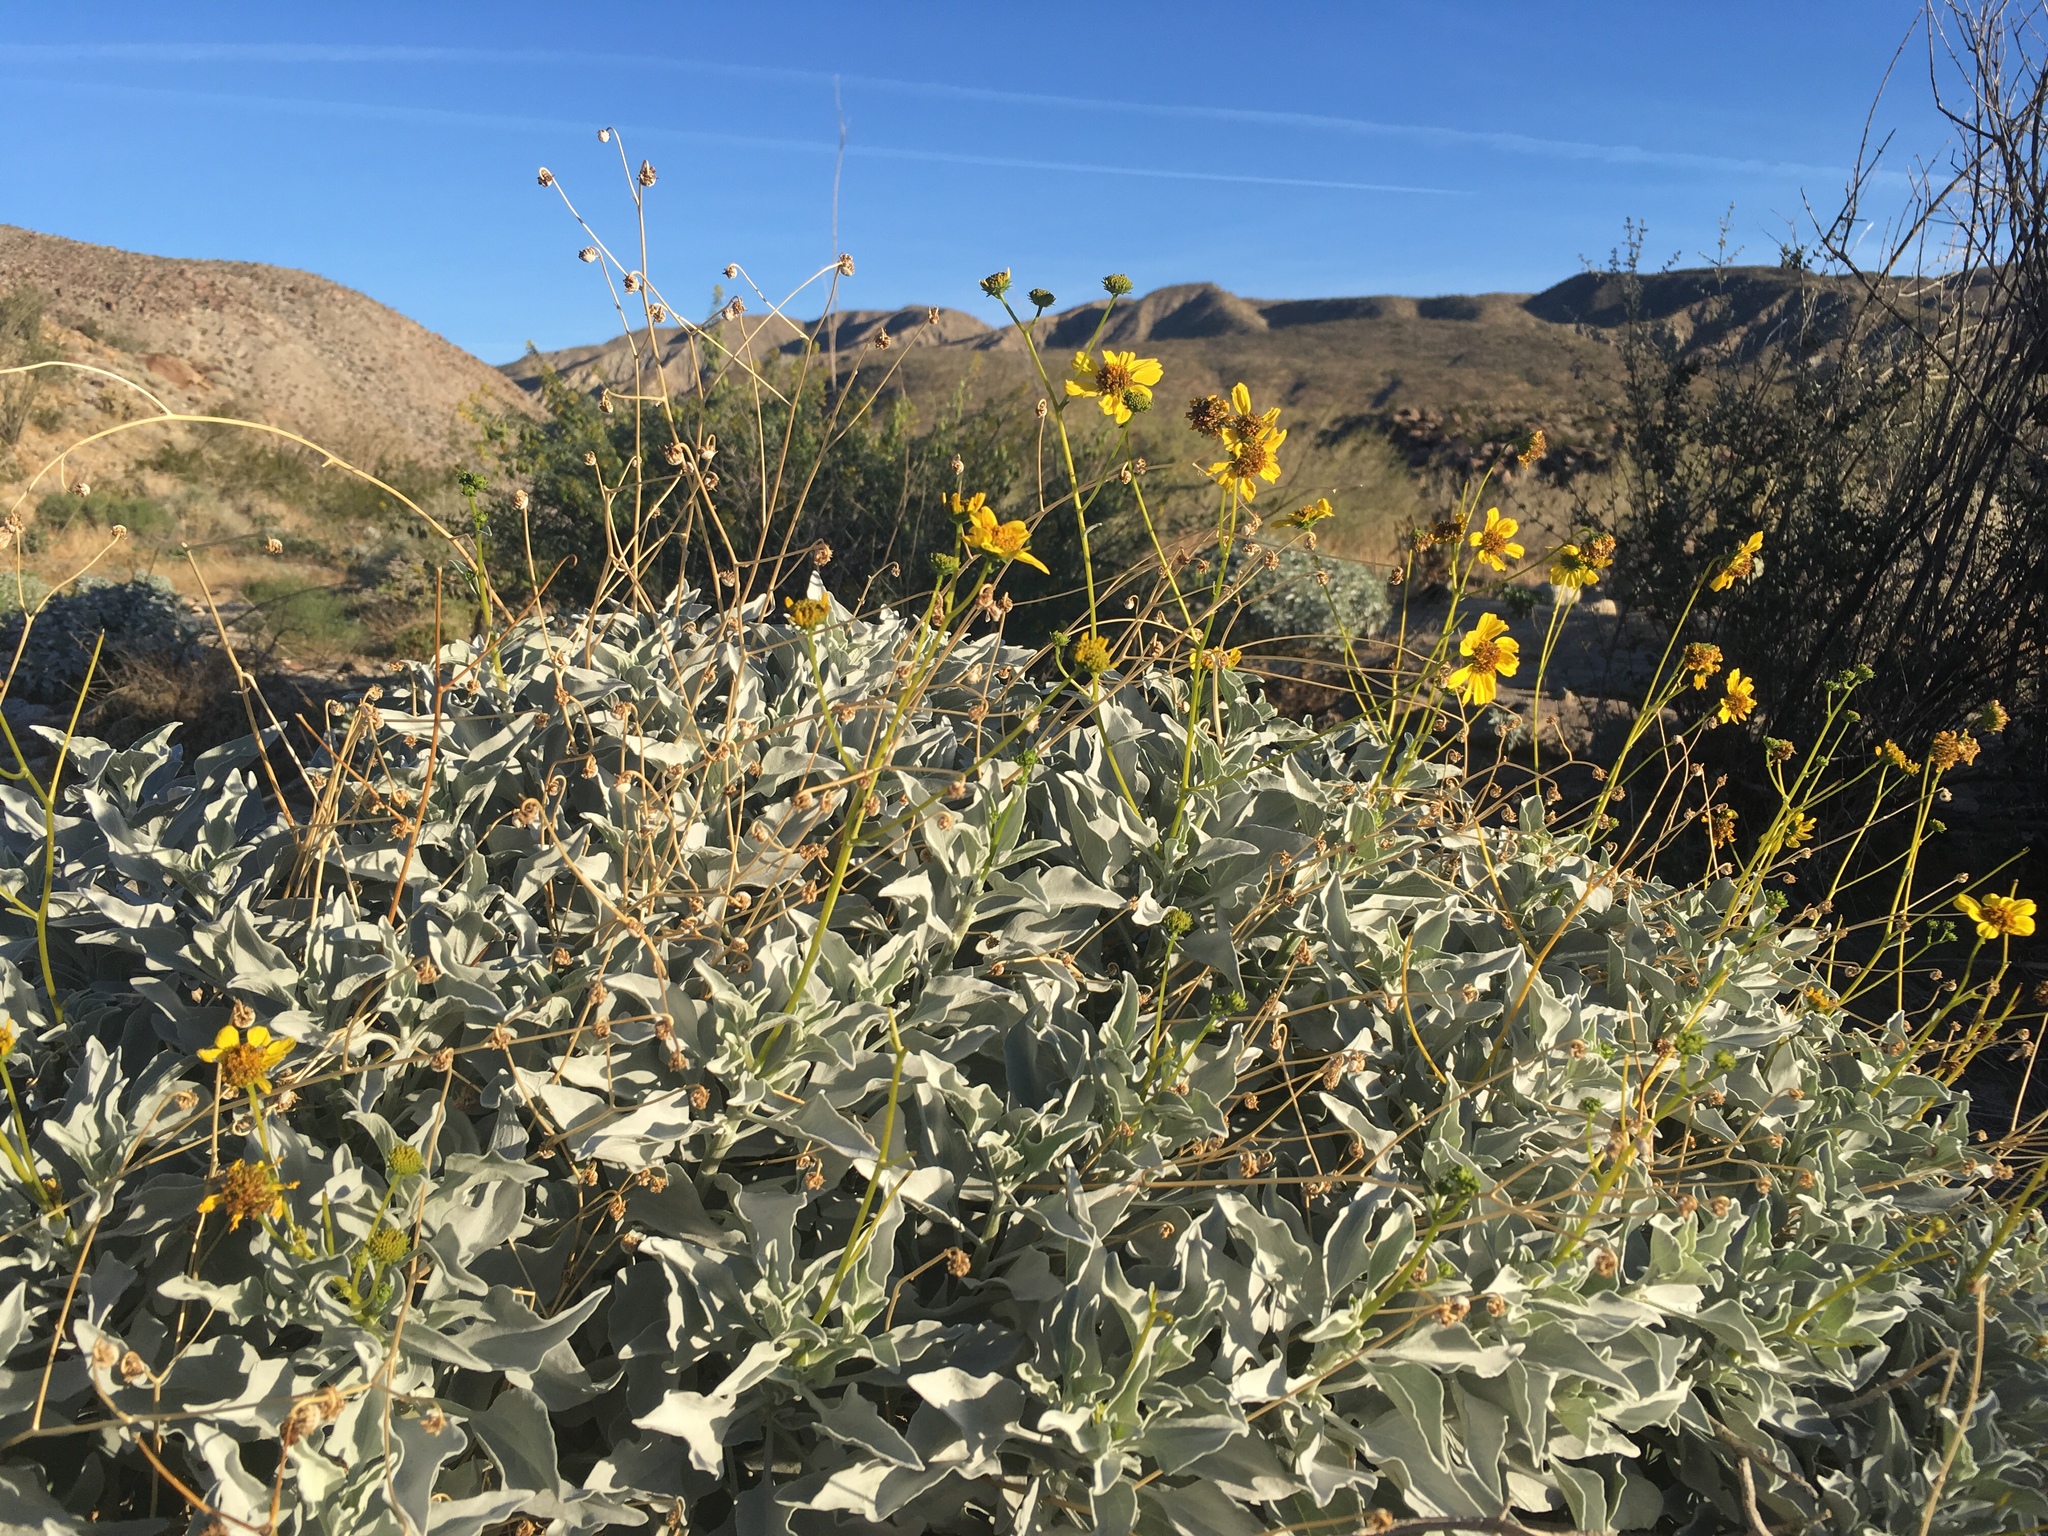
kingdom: Plantae
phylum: Tracheophyta
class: Magnoliopsida
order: Asterales
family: Asteraceae
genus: Encelia
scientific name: Encelia farinosa
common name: Brittlebush
